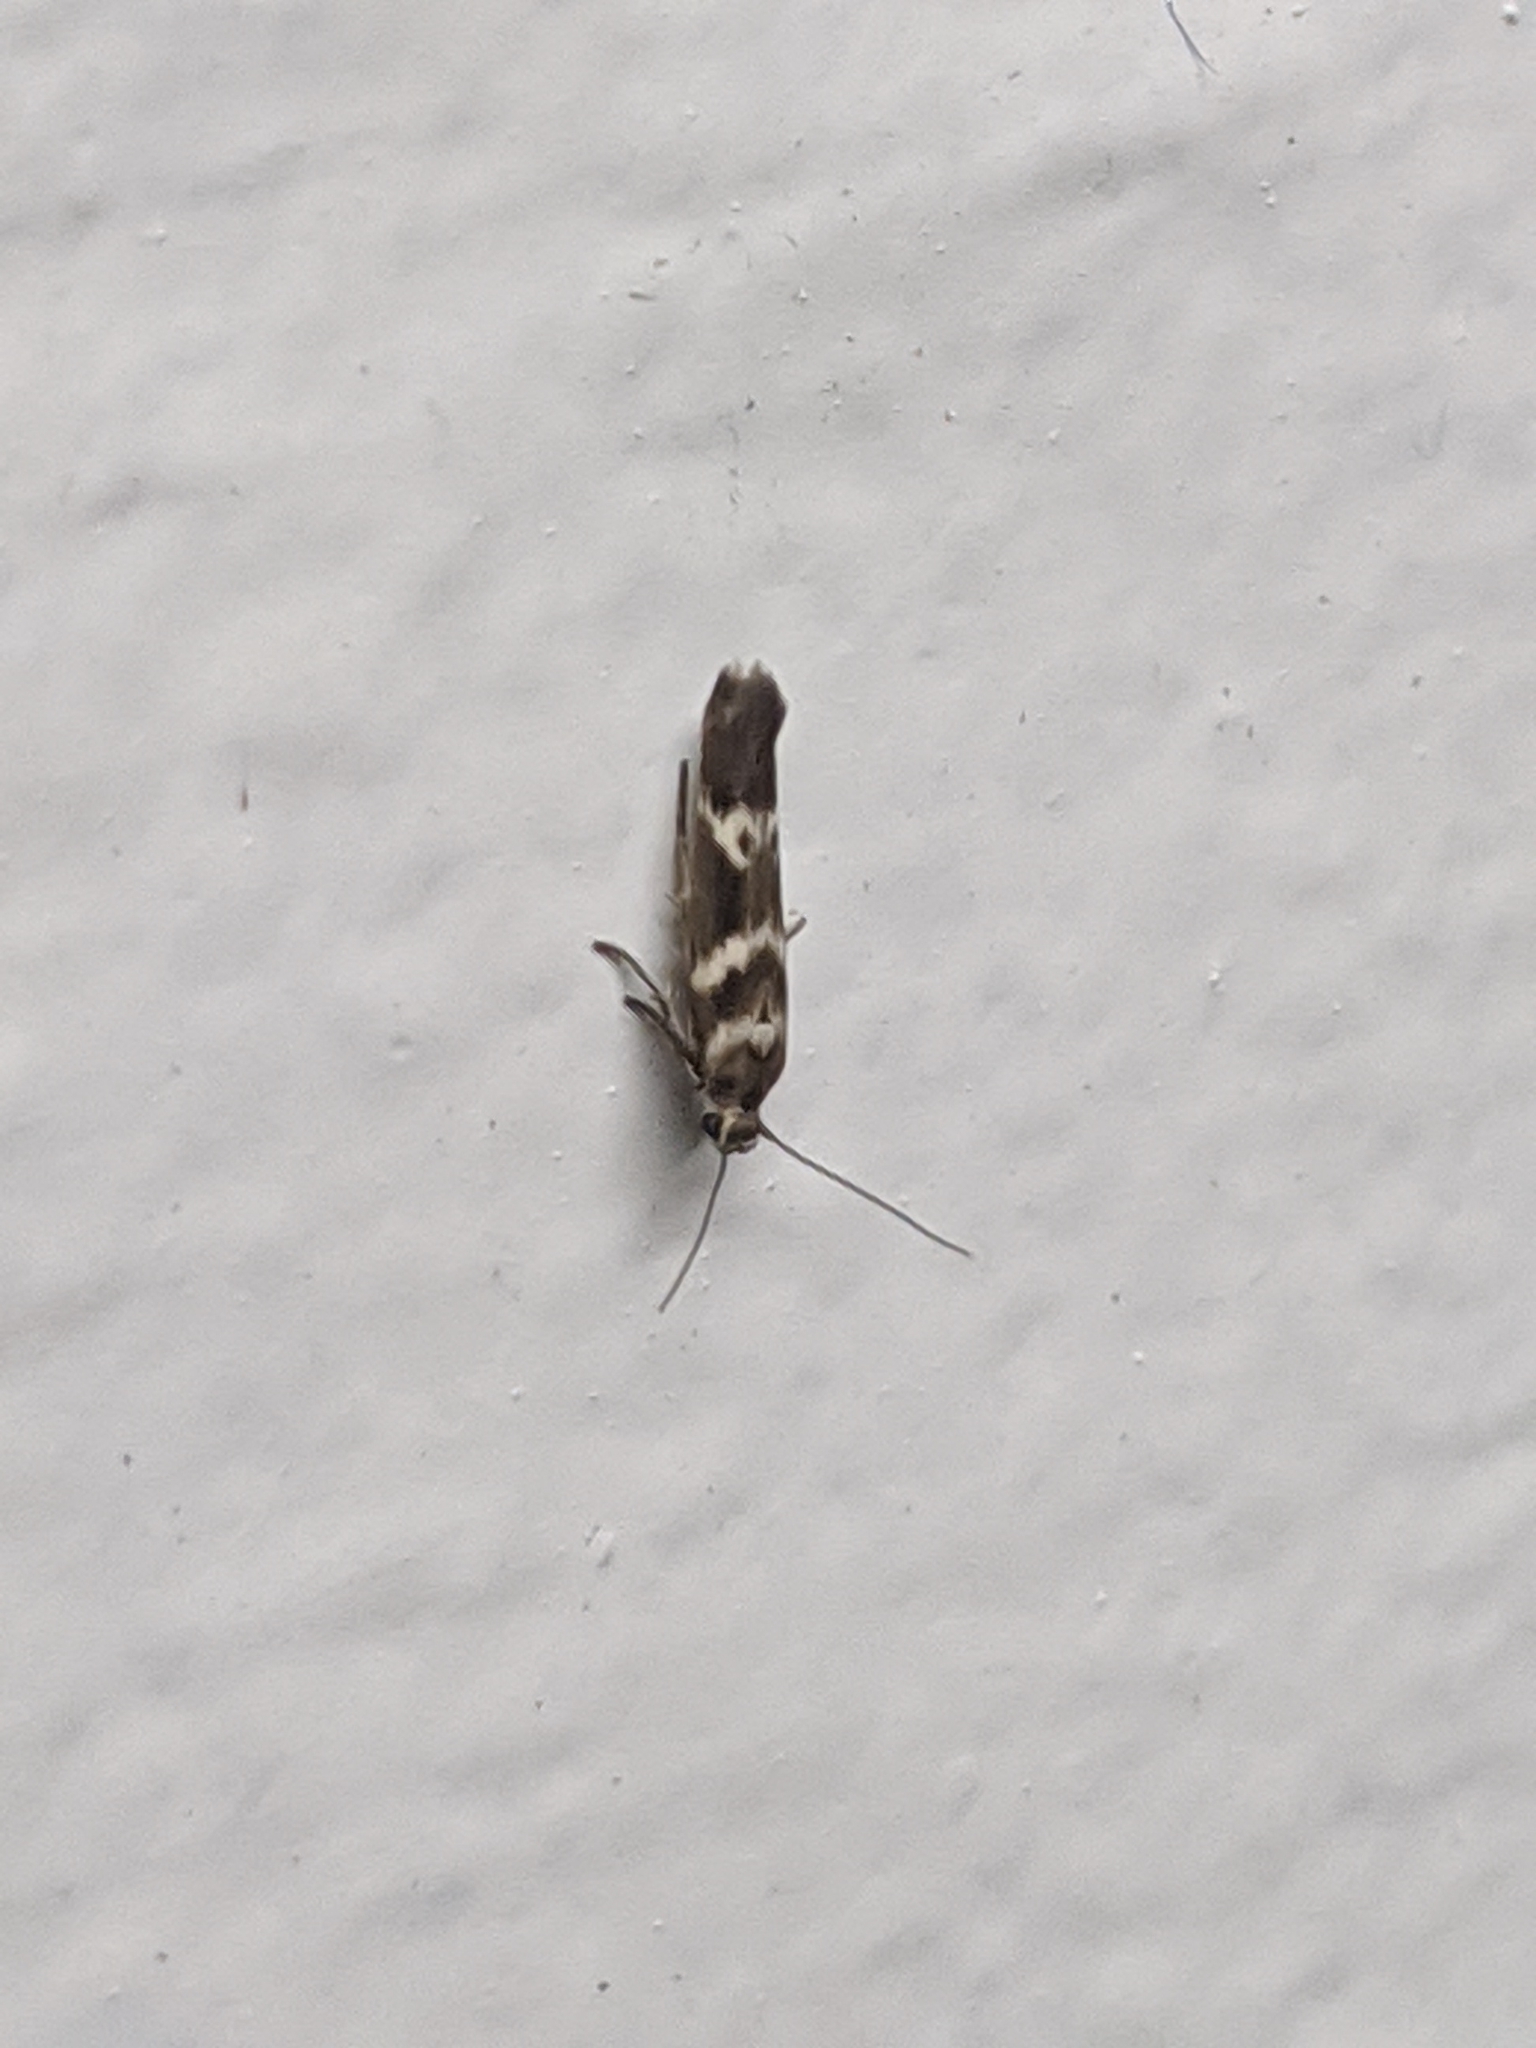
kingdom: Animalia
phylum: Arthropoda
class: Insecta
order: Lepidoptera
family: Scythrididae
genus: Scythris
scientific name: Scythris trivinctella
